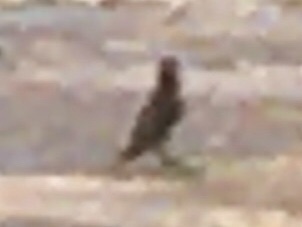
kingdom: Animalia
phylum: Chordata
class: Aves
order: Passeriformes
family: Turdidae
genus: Catharus
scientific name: Catharus guttatus
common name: Hermit thrush
